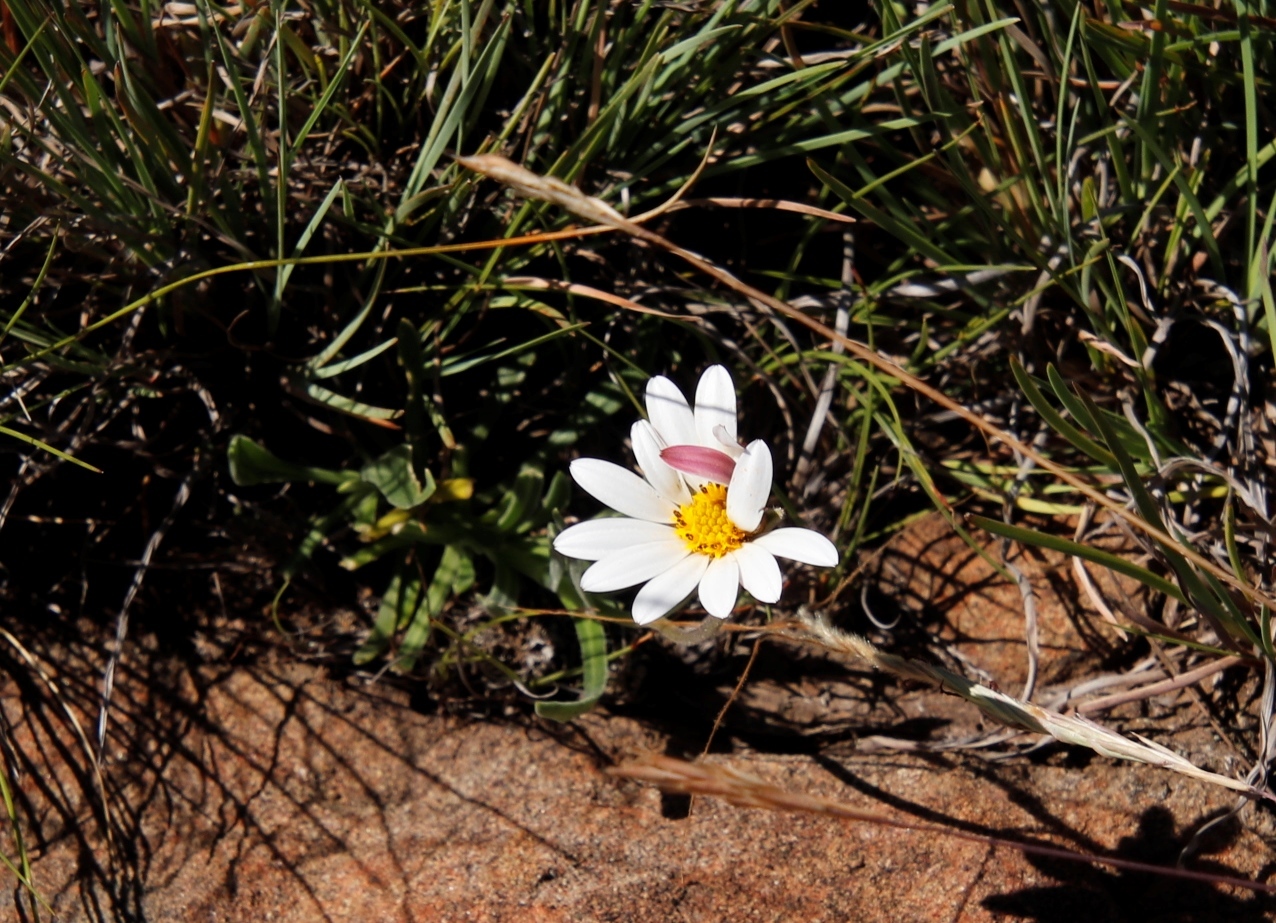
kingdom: Plantae
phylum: Tracheophyta
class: Magnoliopsida
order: Asterales
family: Asteraceae
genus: Roessleria
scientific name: Roessleria armerioides
